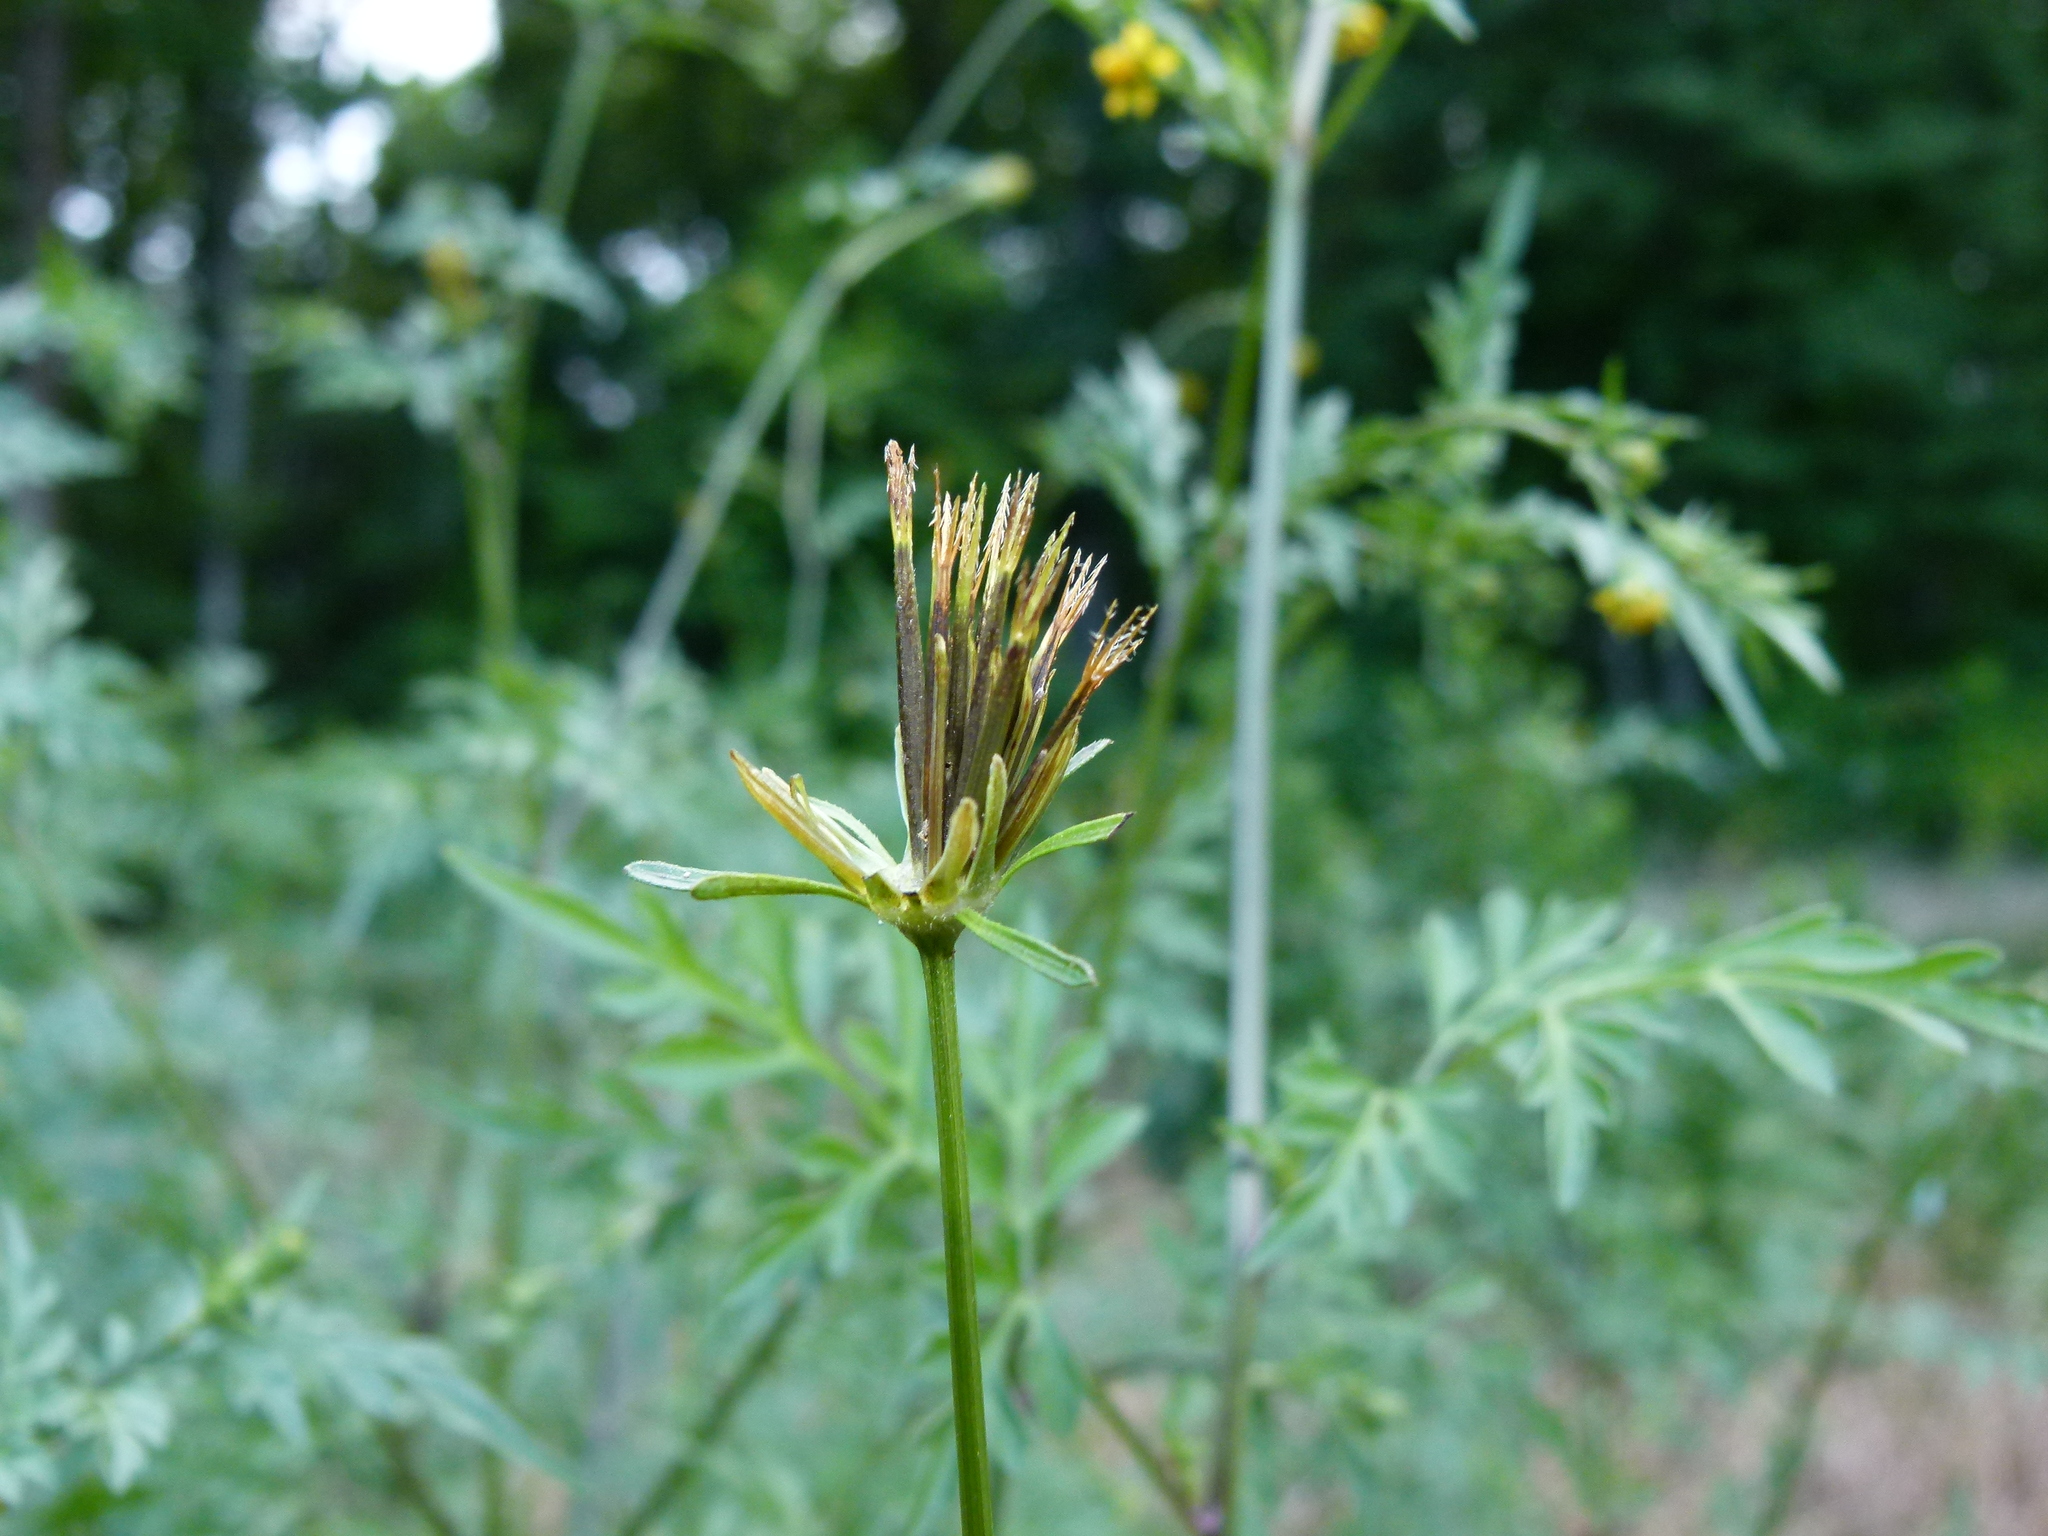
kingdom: Plantae
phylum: Tracheophyta
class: Magnoliopsida
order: Asterales
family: Asteraceae
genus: Bidens
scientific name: Bidens bipinnata
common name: Spanish-needles
